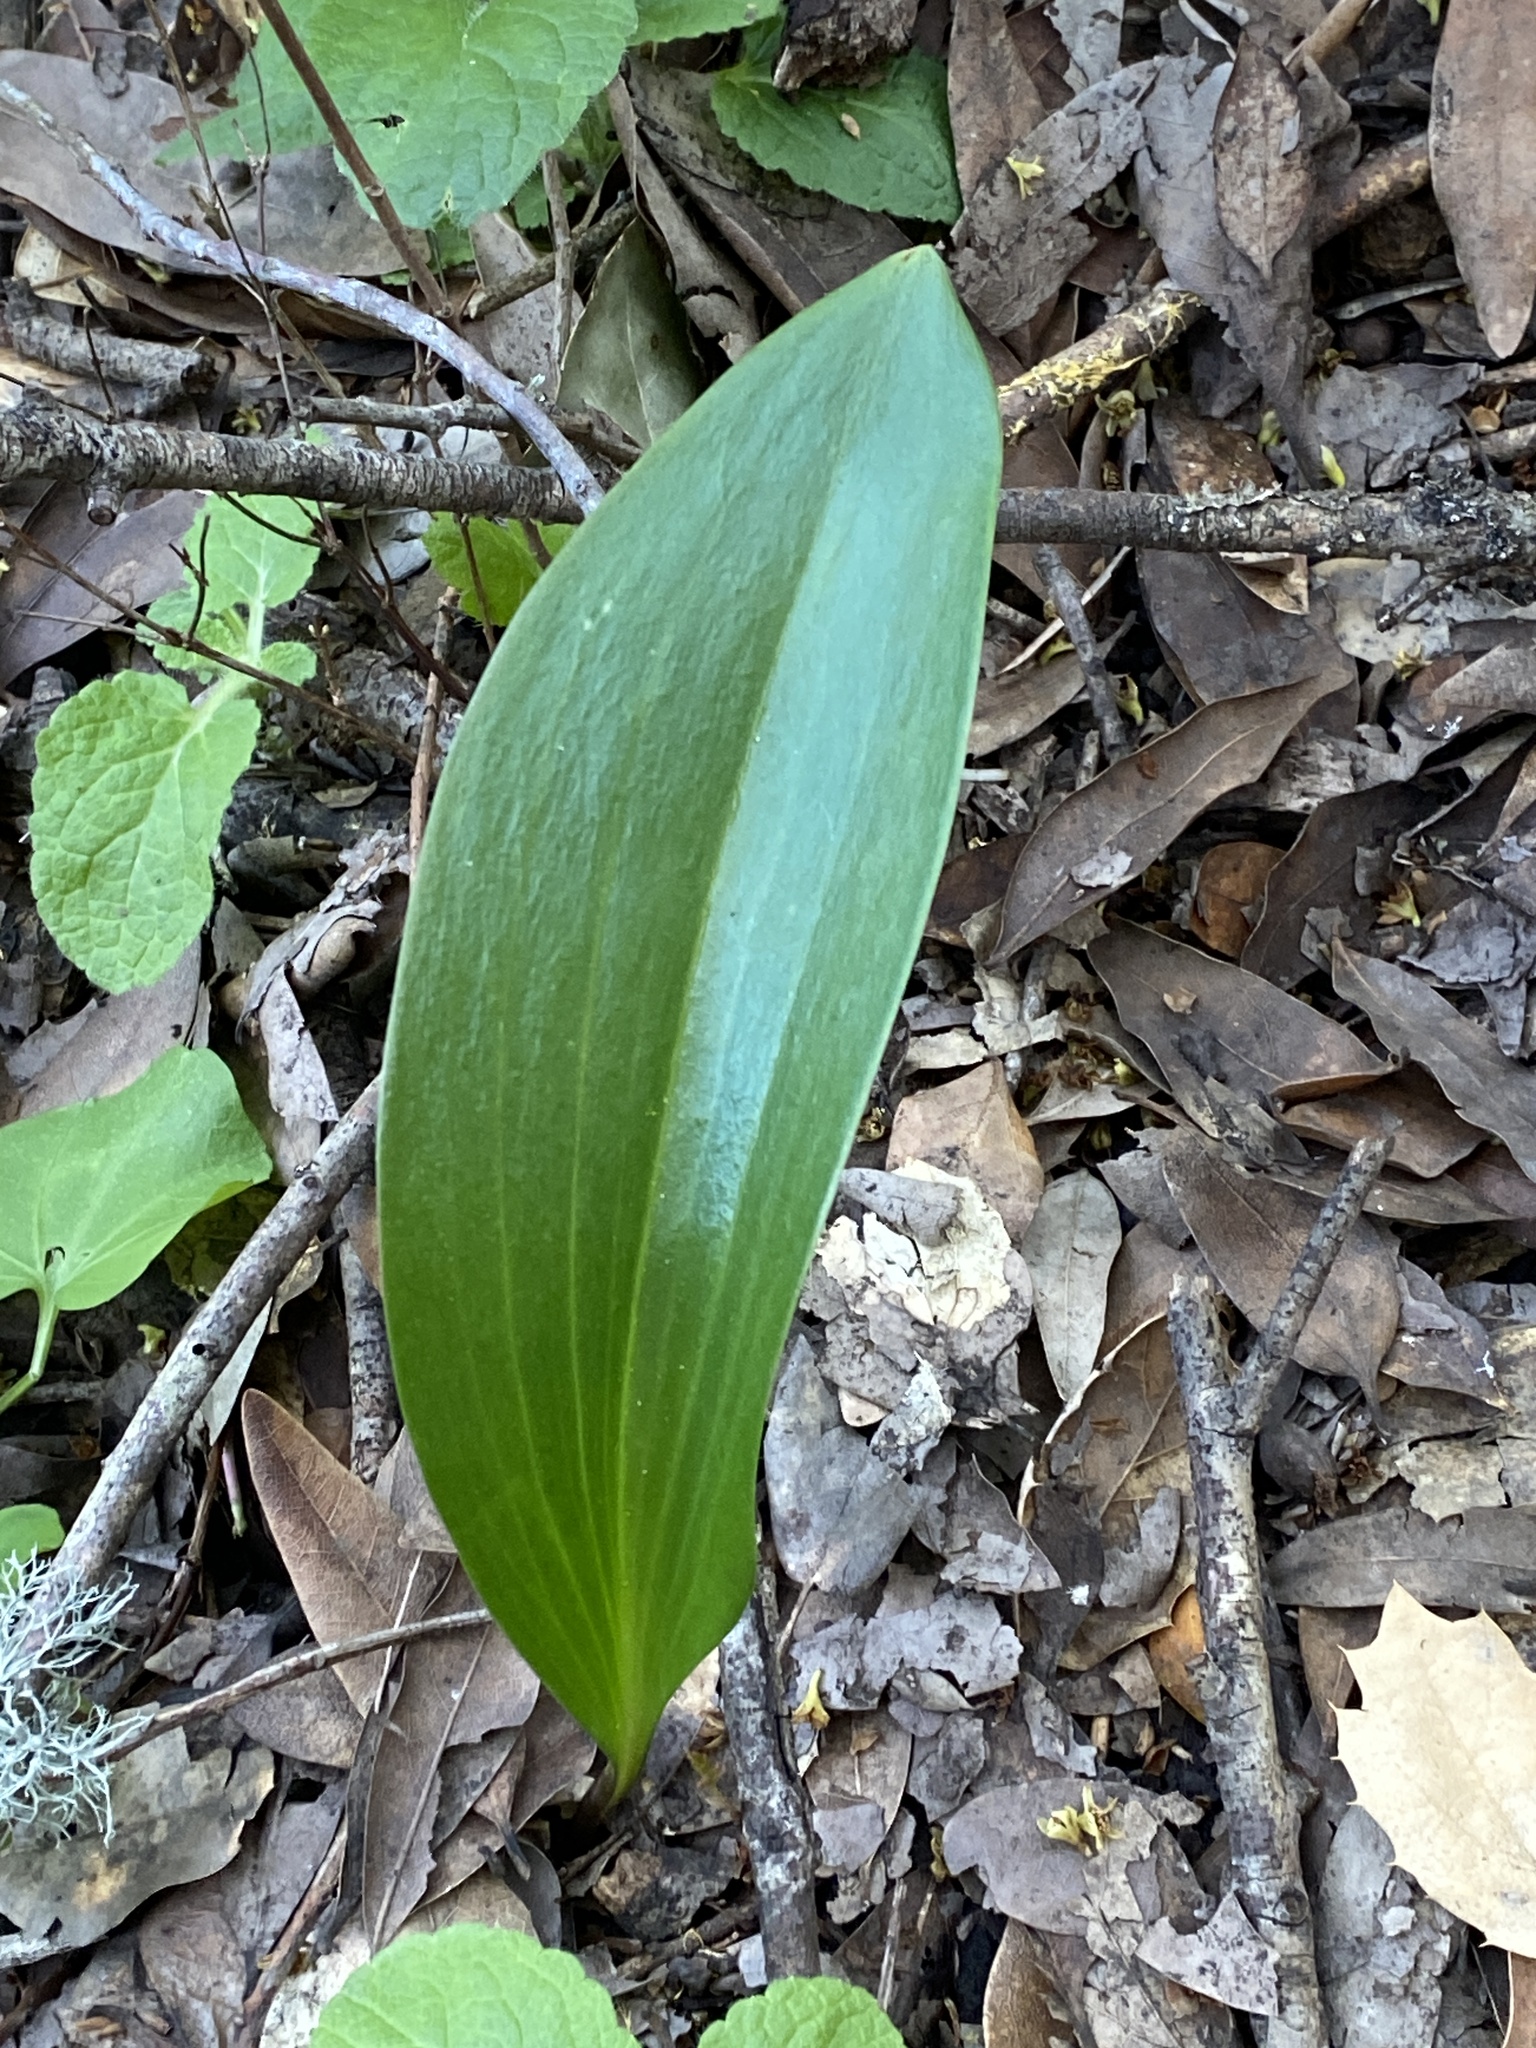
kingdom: Plantae
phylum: Tracheophyta
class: Liliopsida
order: Liliales
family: Liliaceae
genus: Fritillaria
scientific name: Fritillaria affinis
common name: Ojai fritillary
